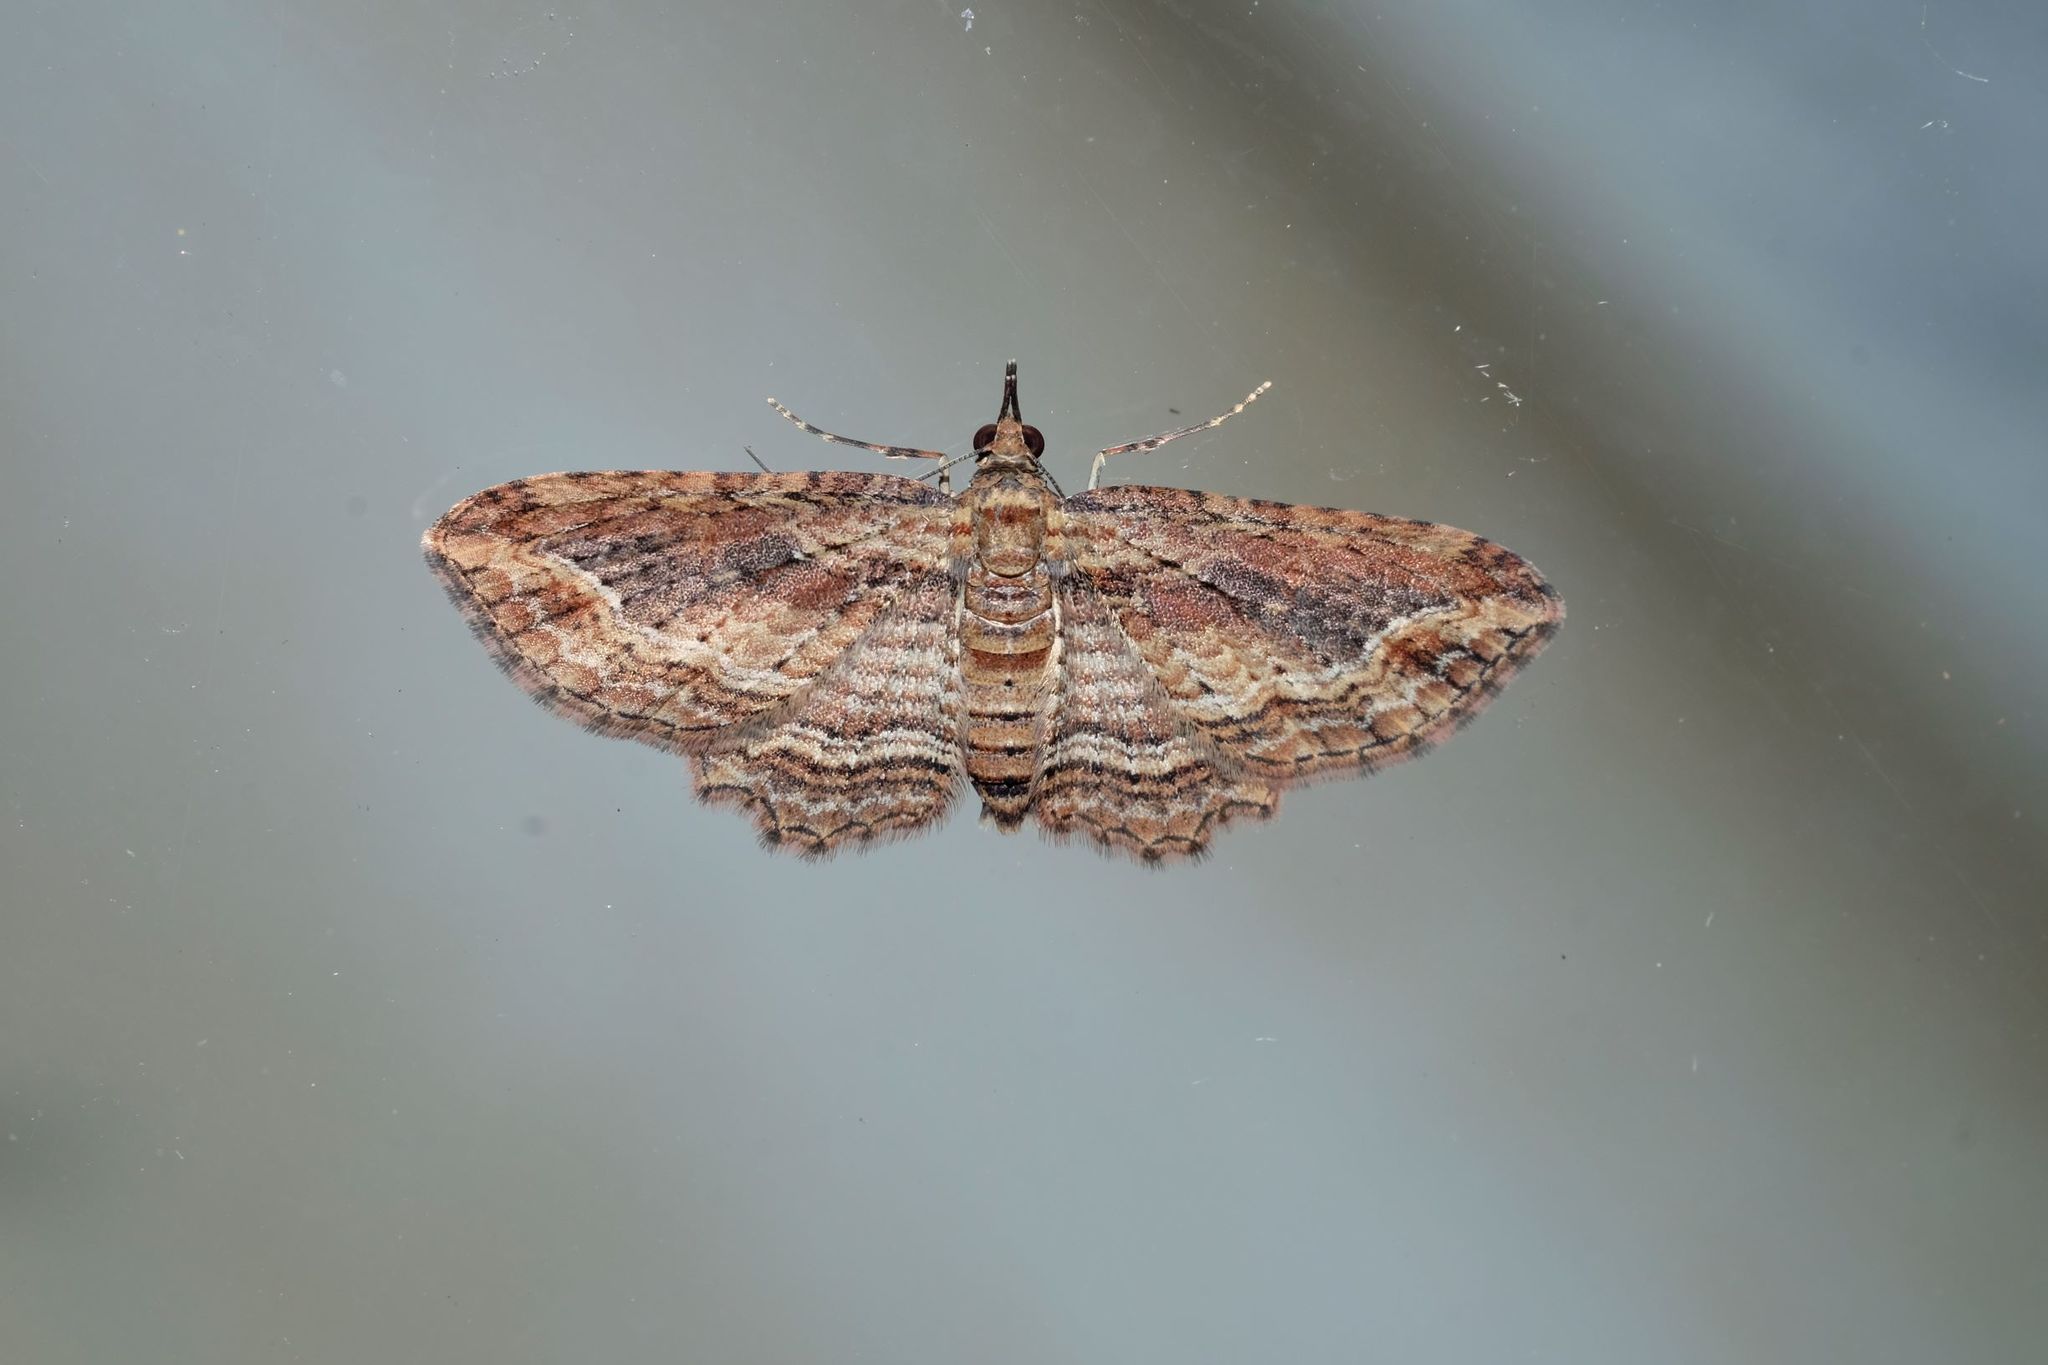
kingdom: Animalia
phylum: Arthropoda
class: Insecta
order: Lepidoptera
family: Geometridae
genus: Chloroclystis
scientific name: Chloroclystis filata
